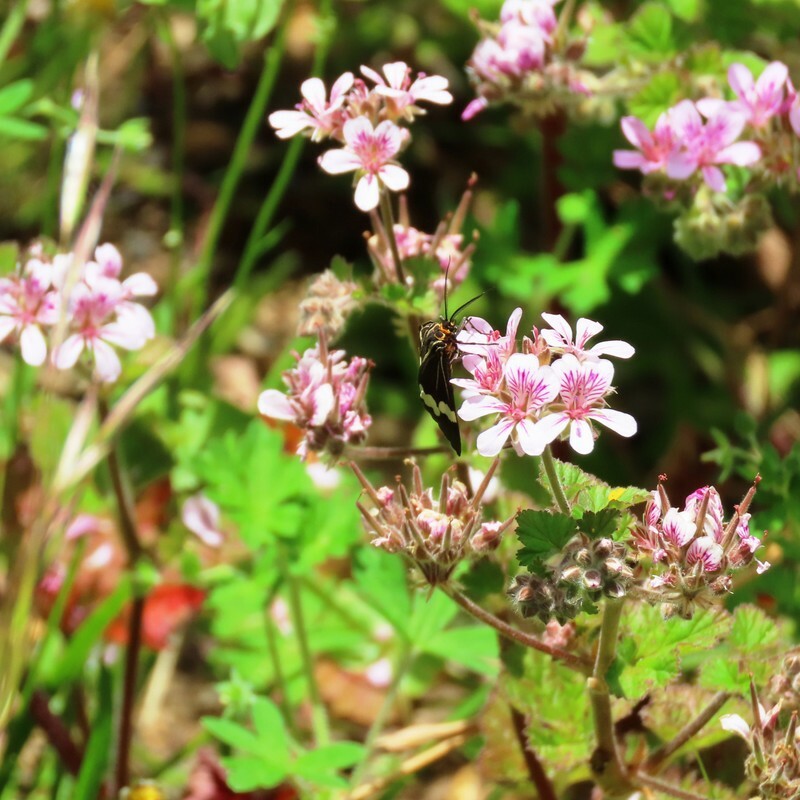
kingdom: Animalia
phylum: Arthropoda
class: Insecta
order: Lepidoptera
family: Erebidae
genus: Nyctemera
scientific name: Nyctemera amicus
